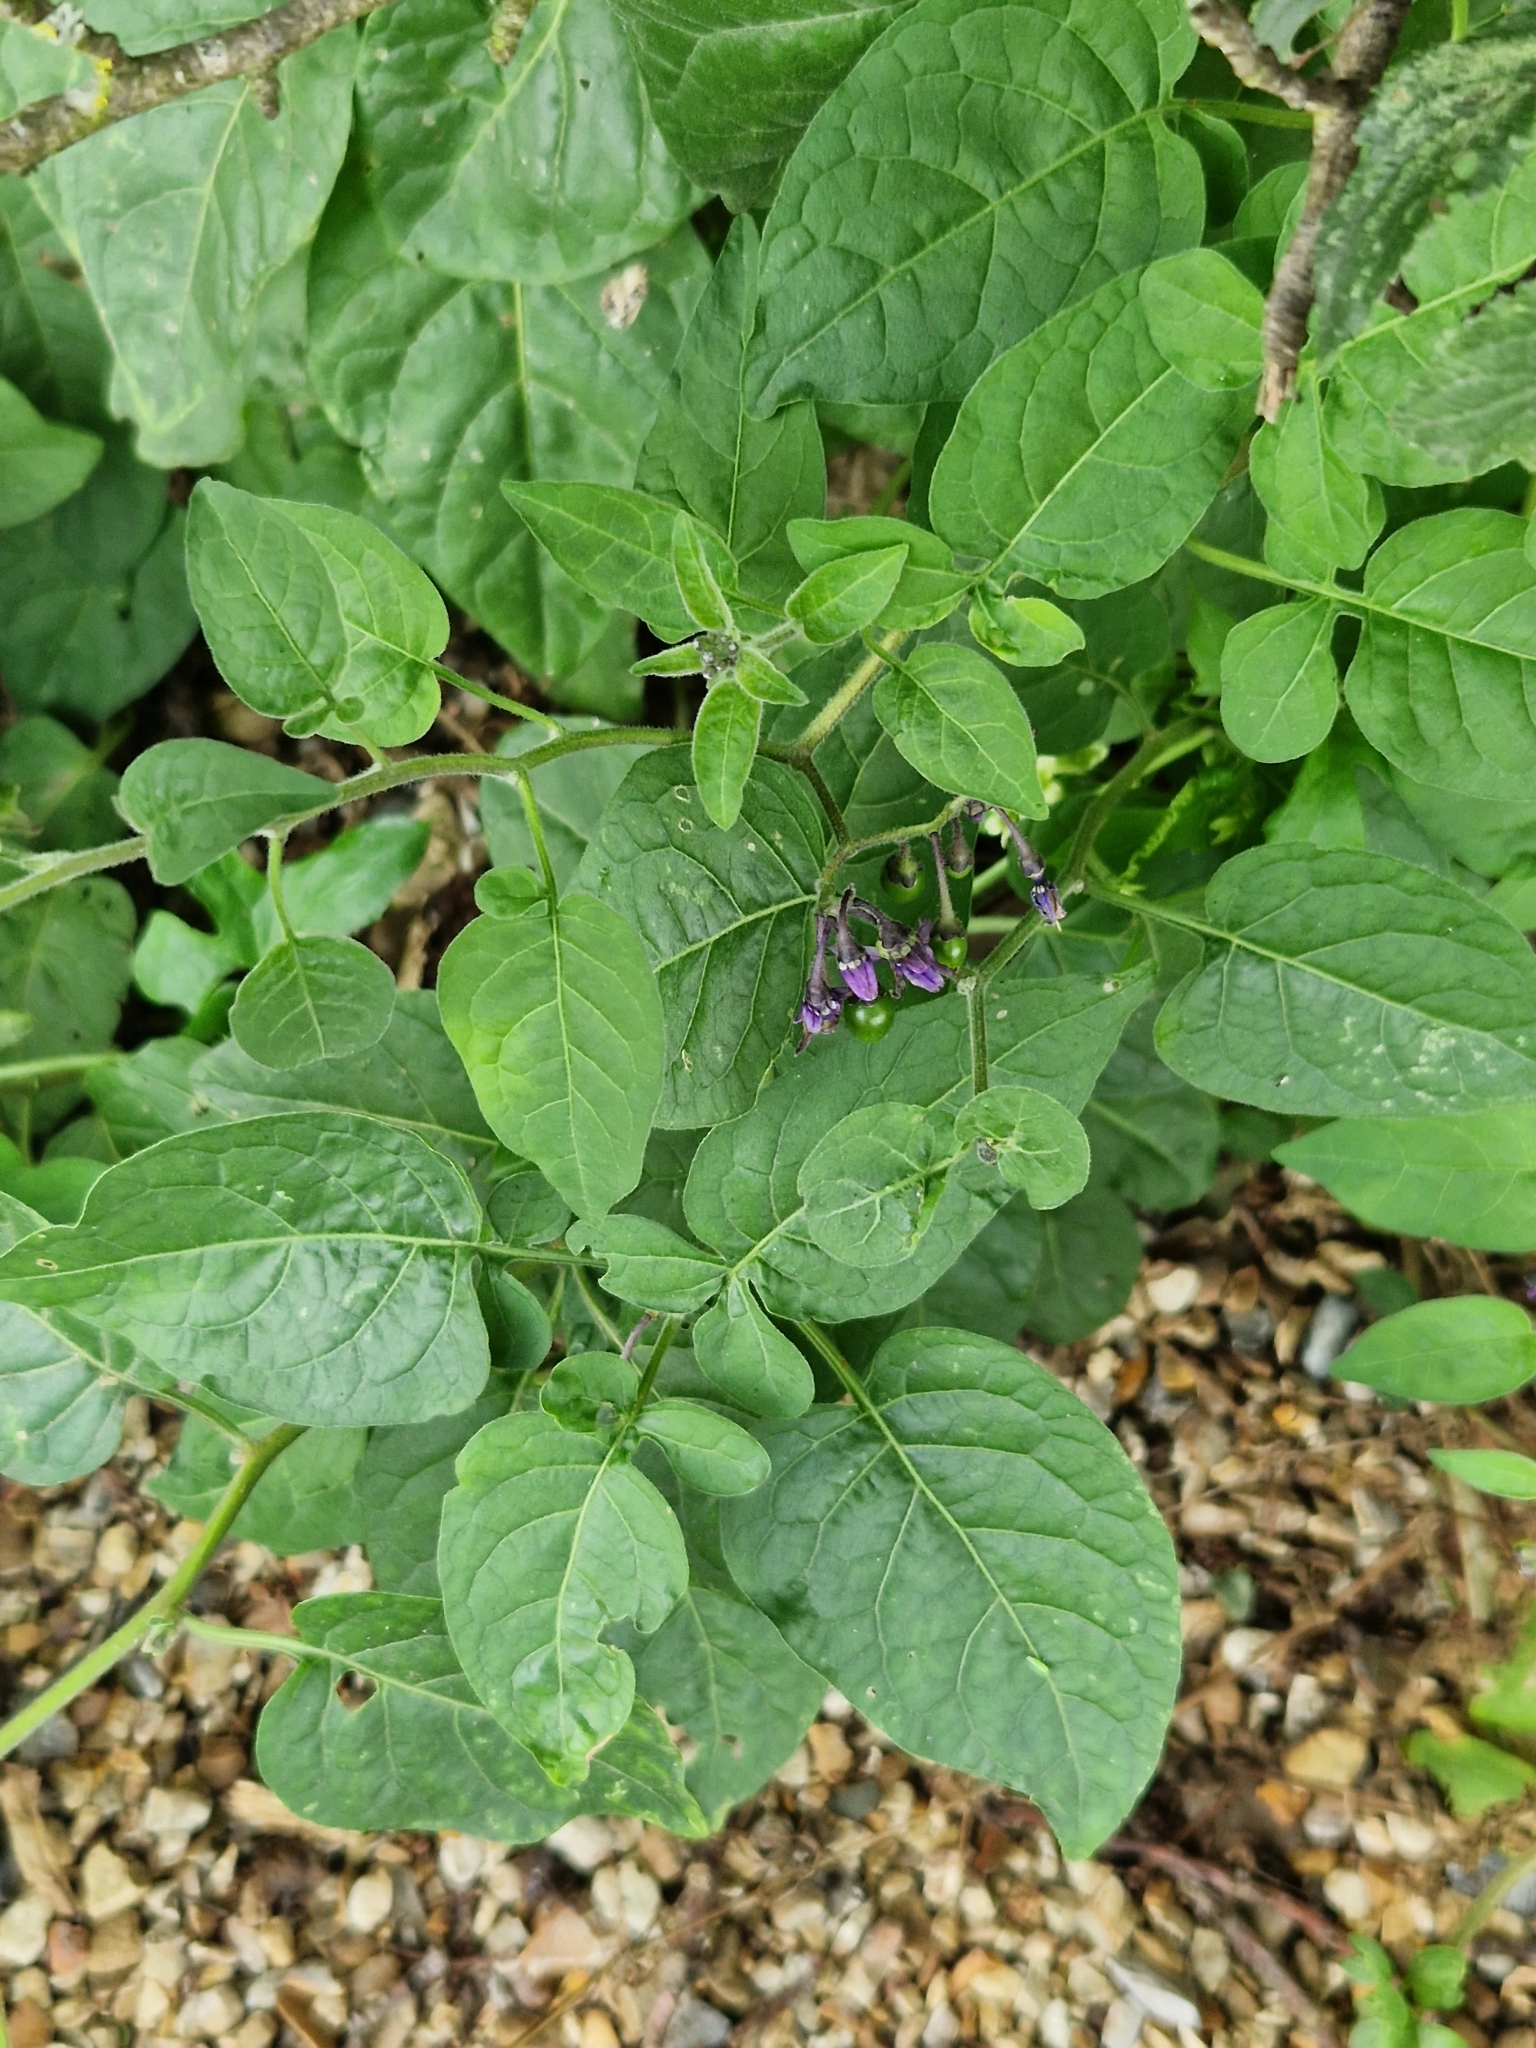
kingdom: Plantae
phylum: Tracheophyta
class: Magnoliopsida
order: Solanales
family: Solanaceae
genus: Solanum
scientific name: Solanum dulcamara
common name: Climbing nightshade
